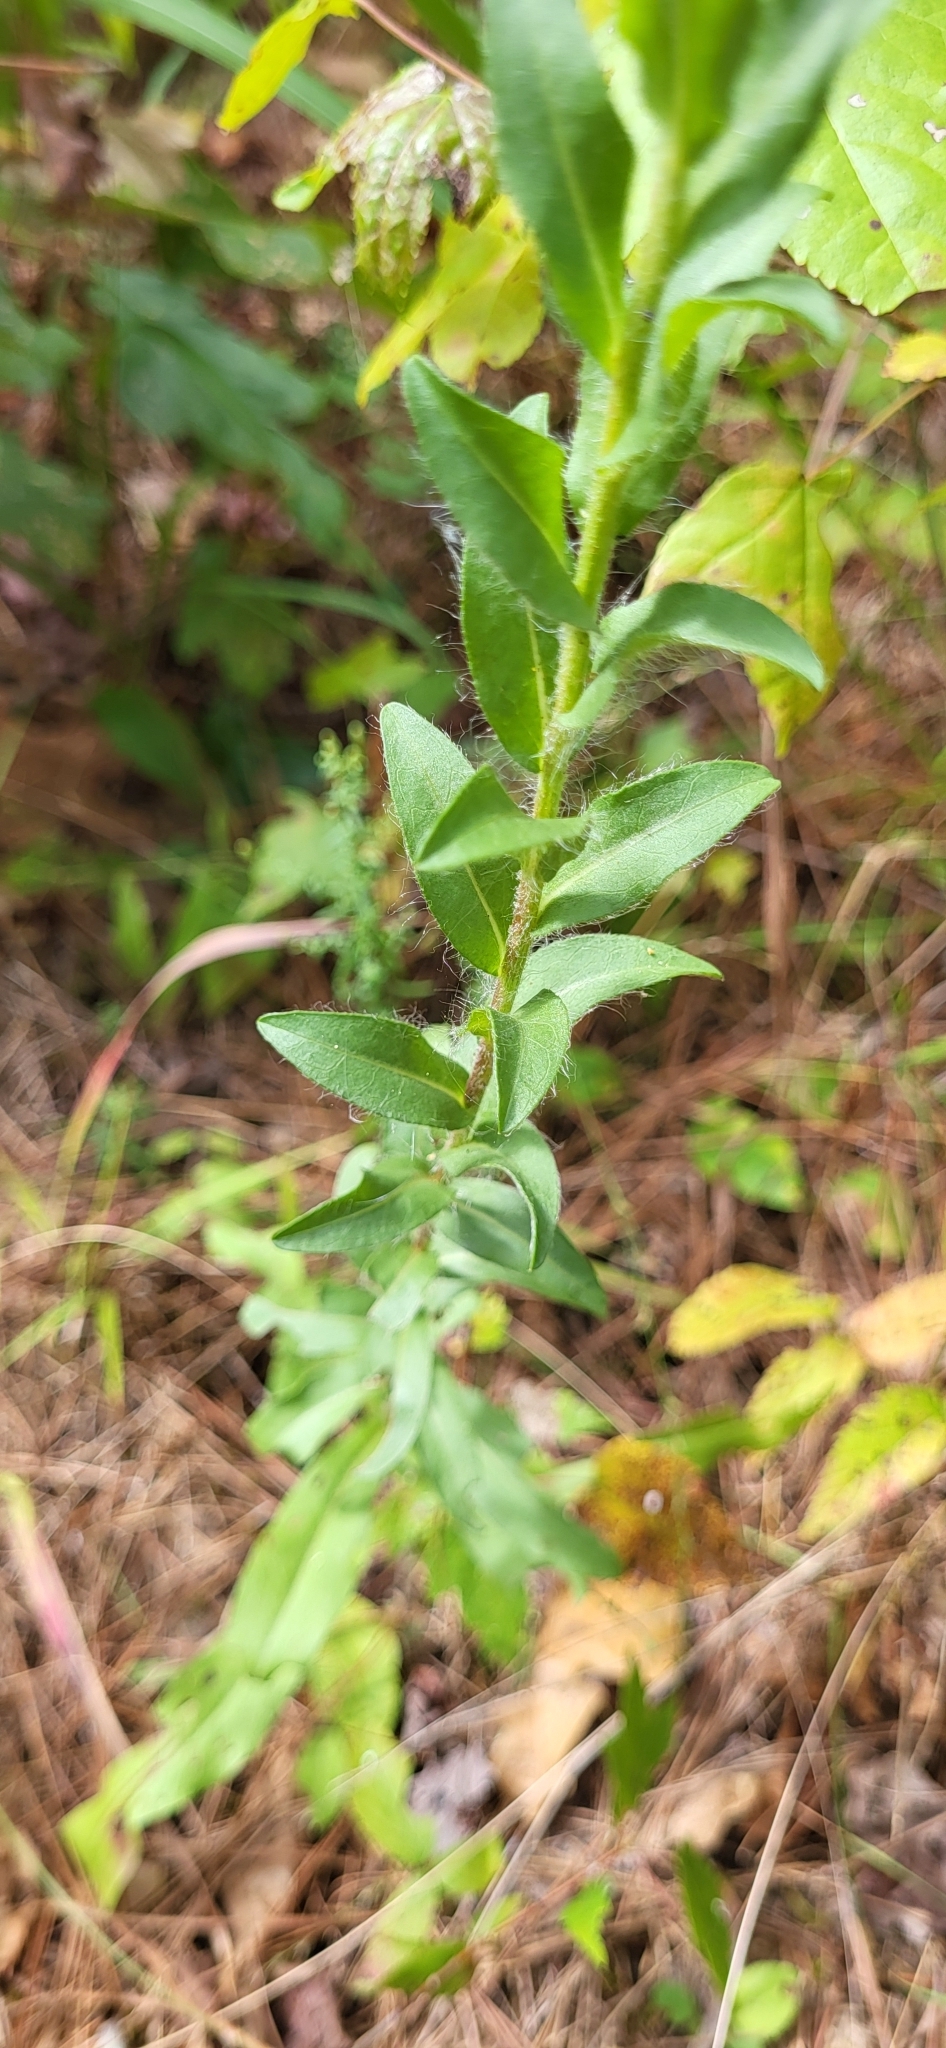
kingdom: Plantae
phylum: Tracheophyta
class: Magnoliopsida
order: Asterales
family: Asteraceae
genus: Chrysopsis
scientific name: Chrysopsis mariana
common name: Maryland golden-aster
